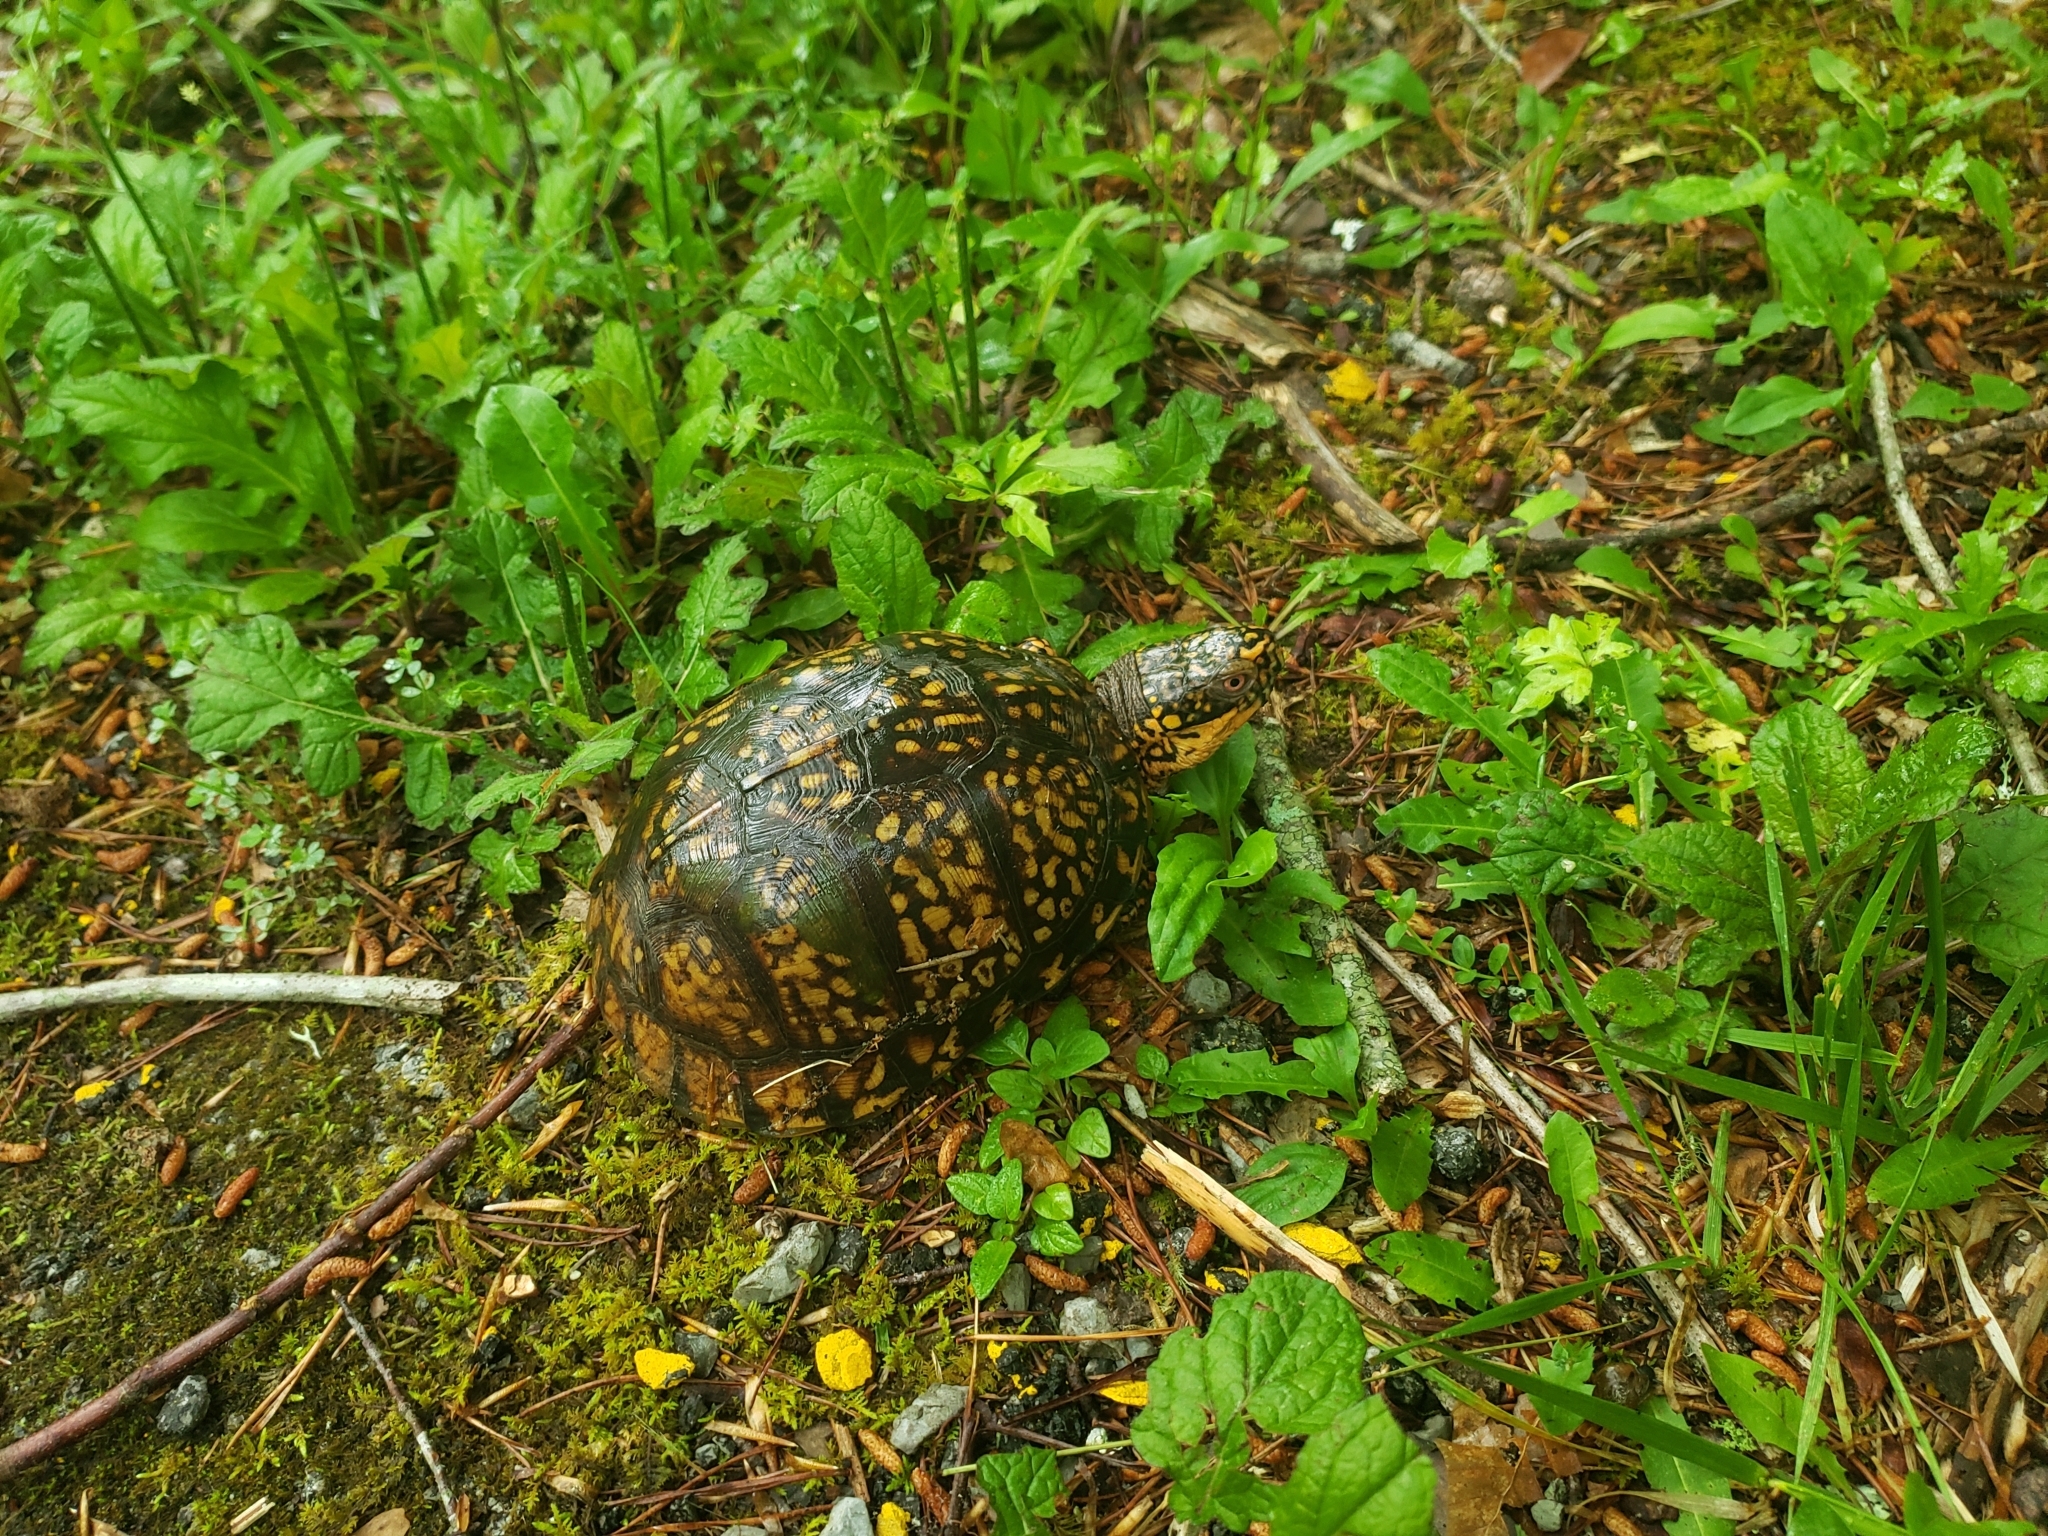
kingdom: Animalia
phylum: Chordata
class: Testudines
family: Emydidae
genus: Terrapene
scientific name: Terrapene carolina
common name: Common box turtle
